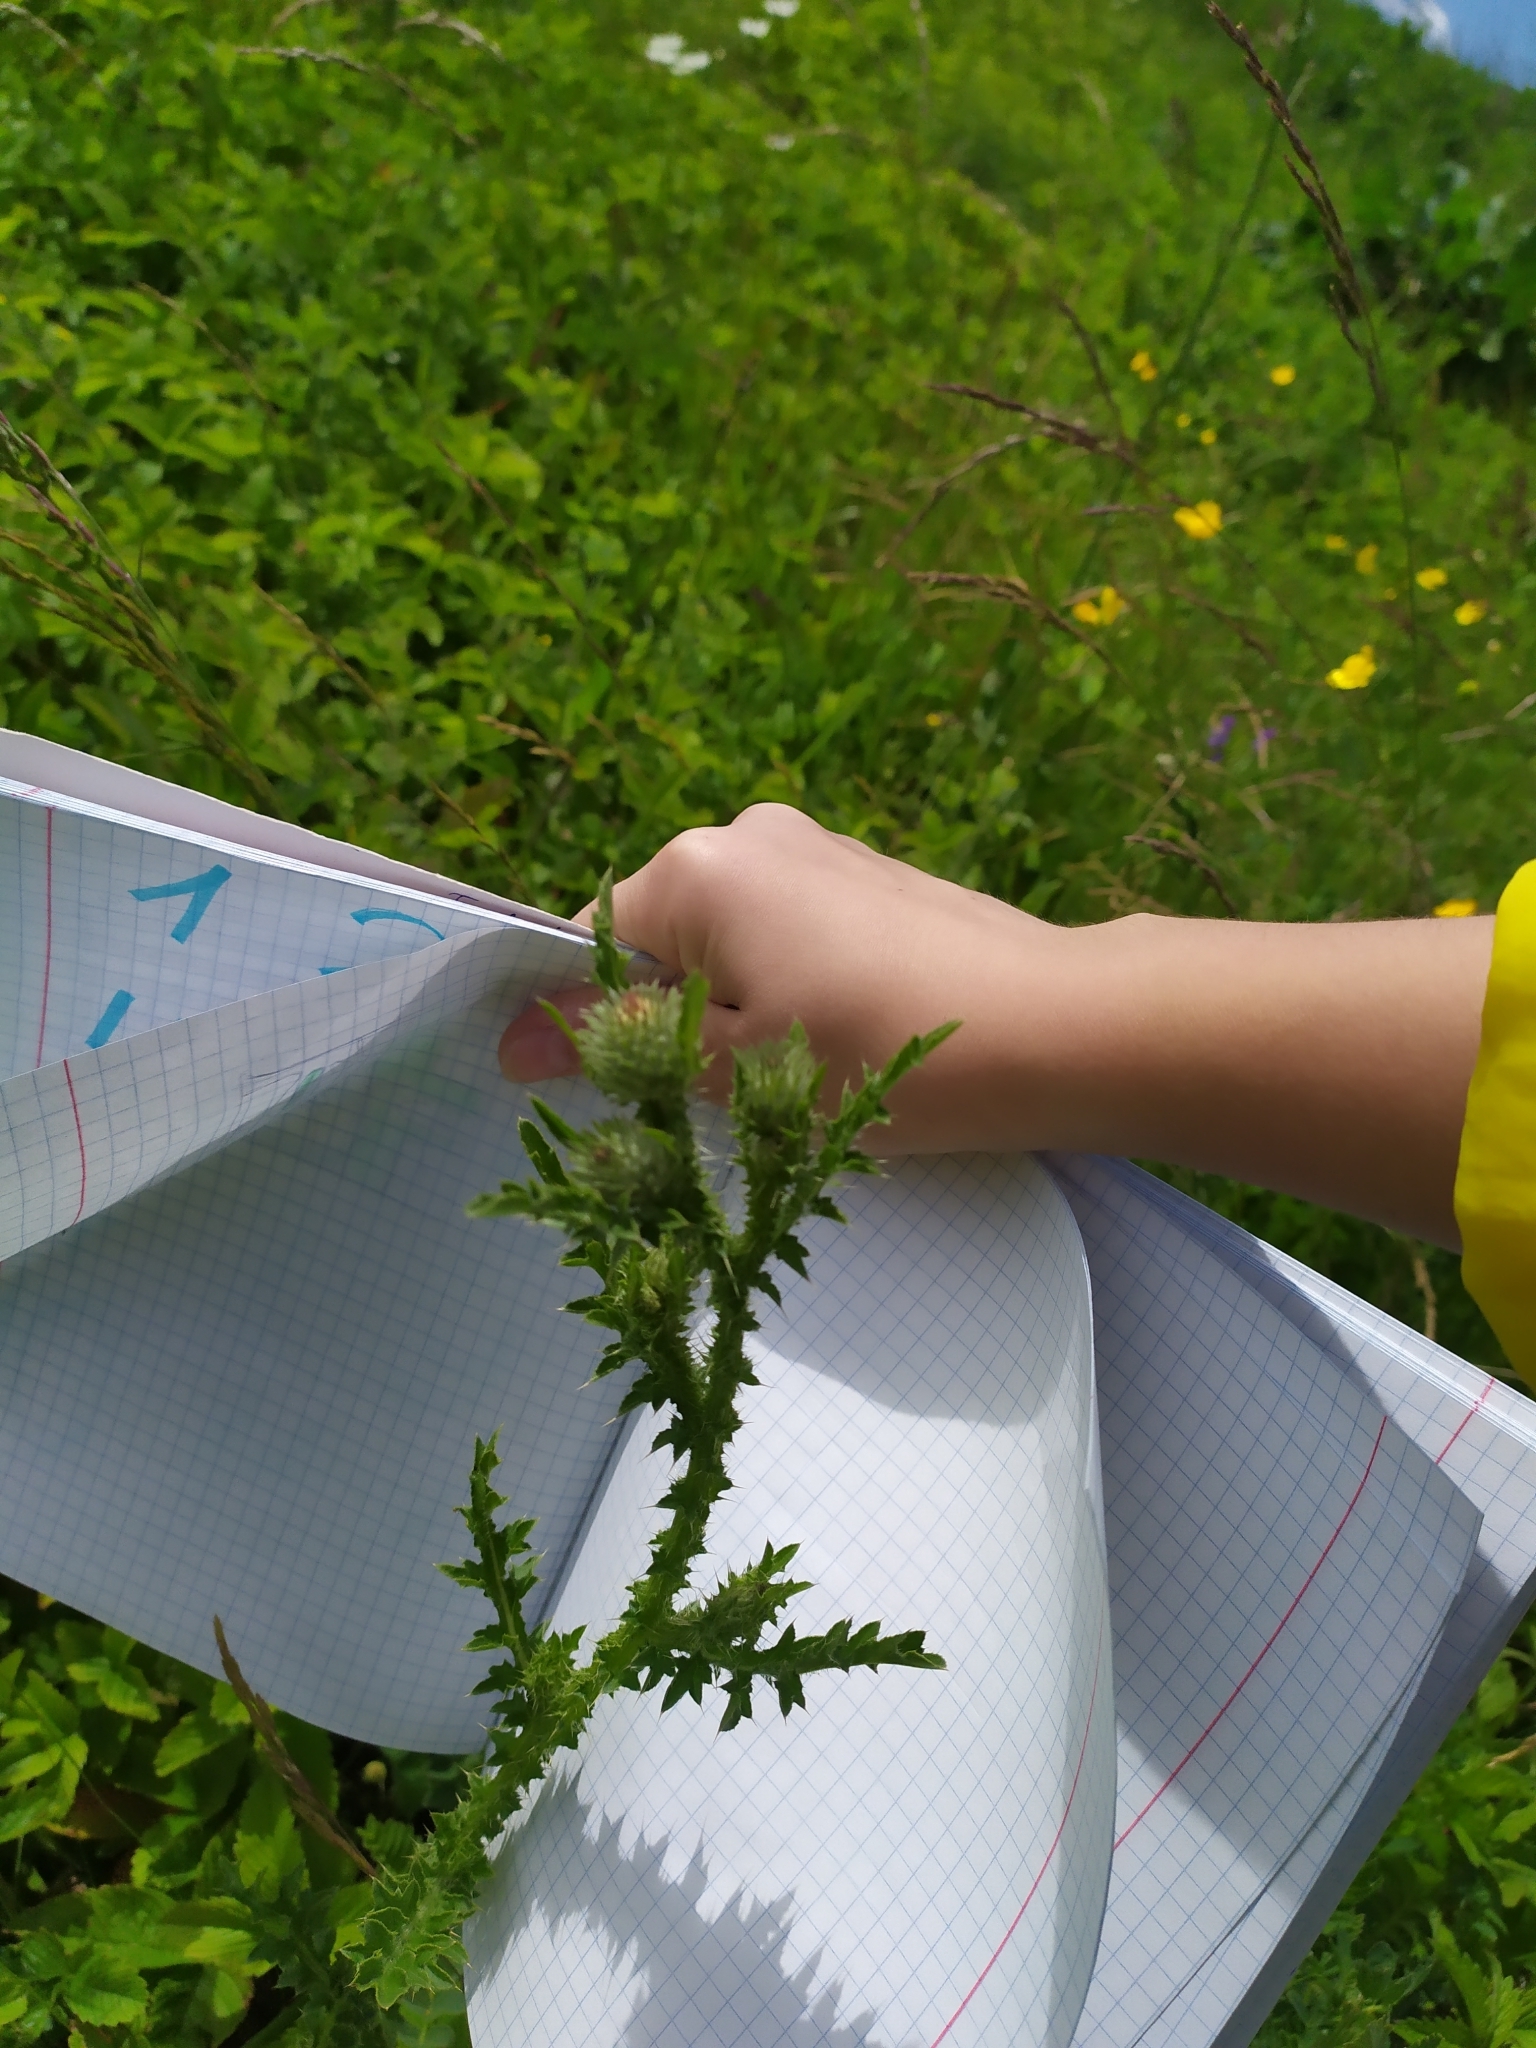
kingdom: Plantae
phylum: Tracheophyta
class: Magnoliopsida
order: Asterales
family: Asteraceae
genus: Carduus
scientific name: Carduus acanthoides
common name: Plumeless thistle
